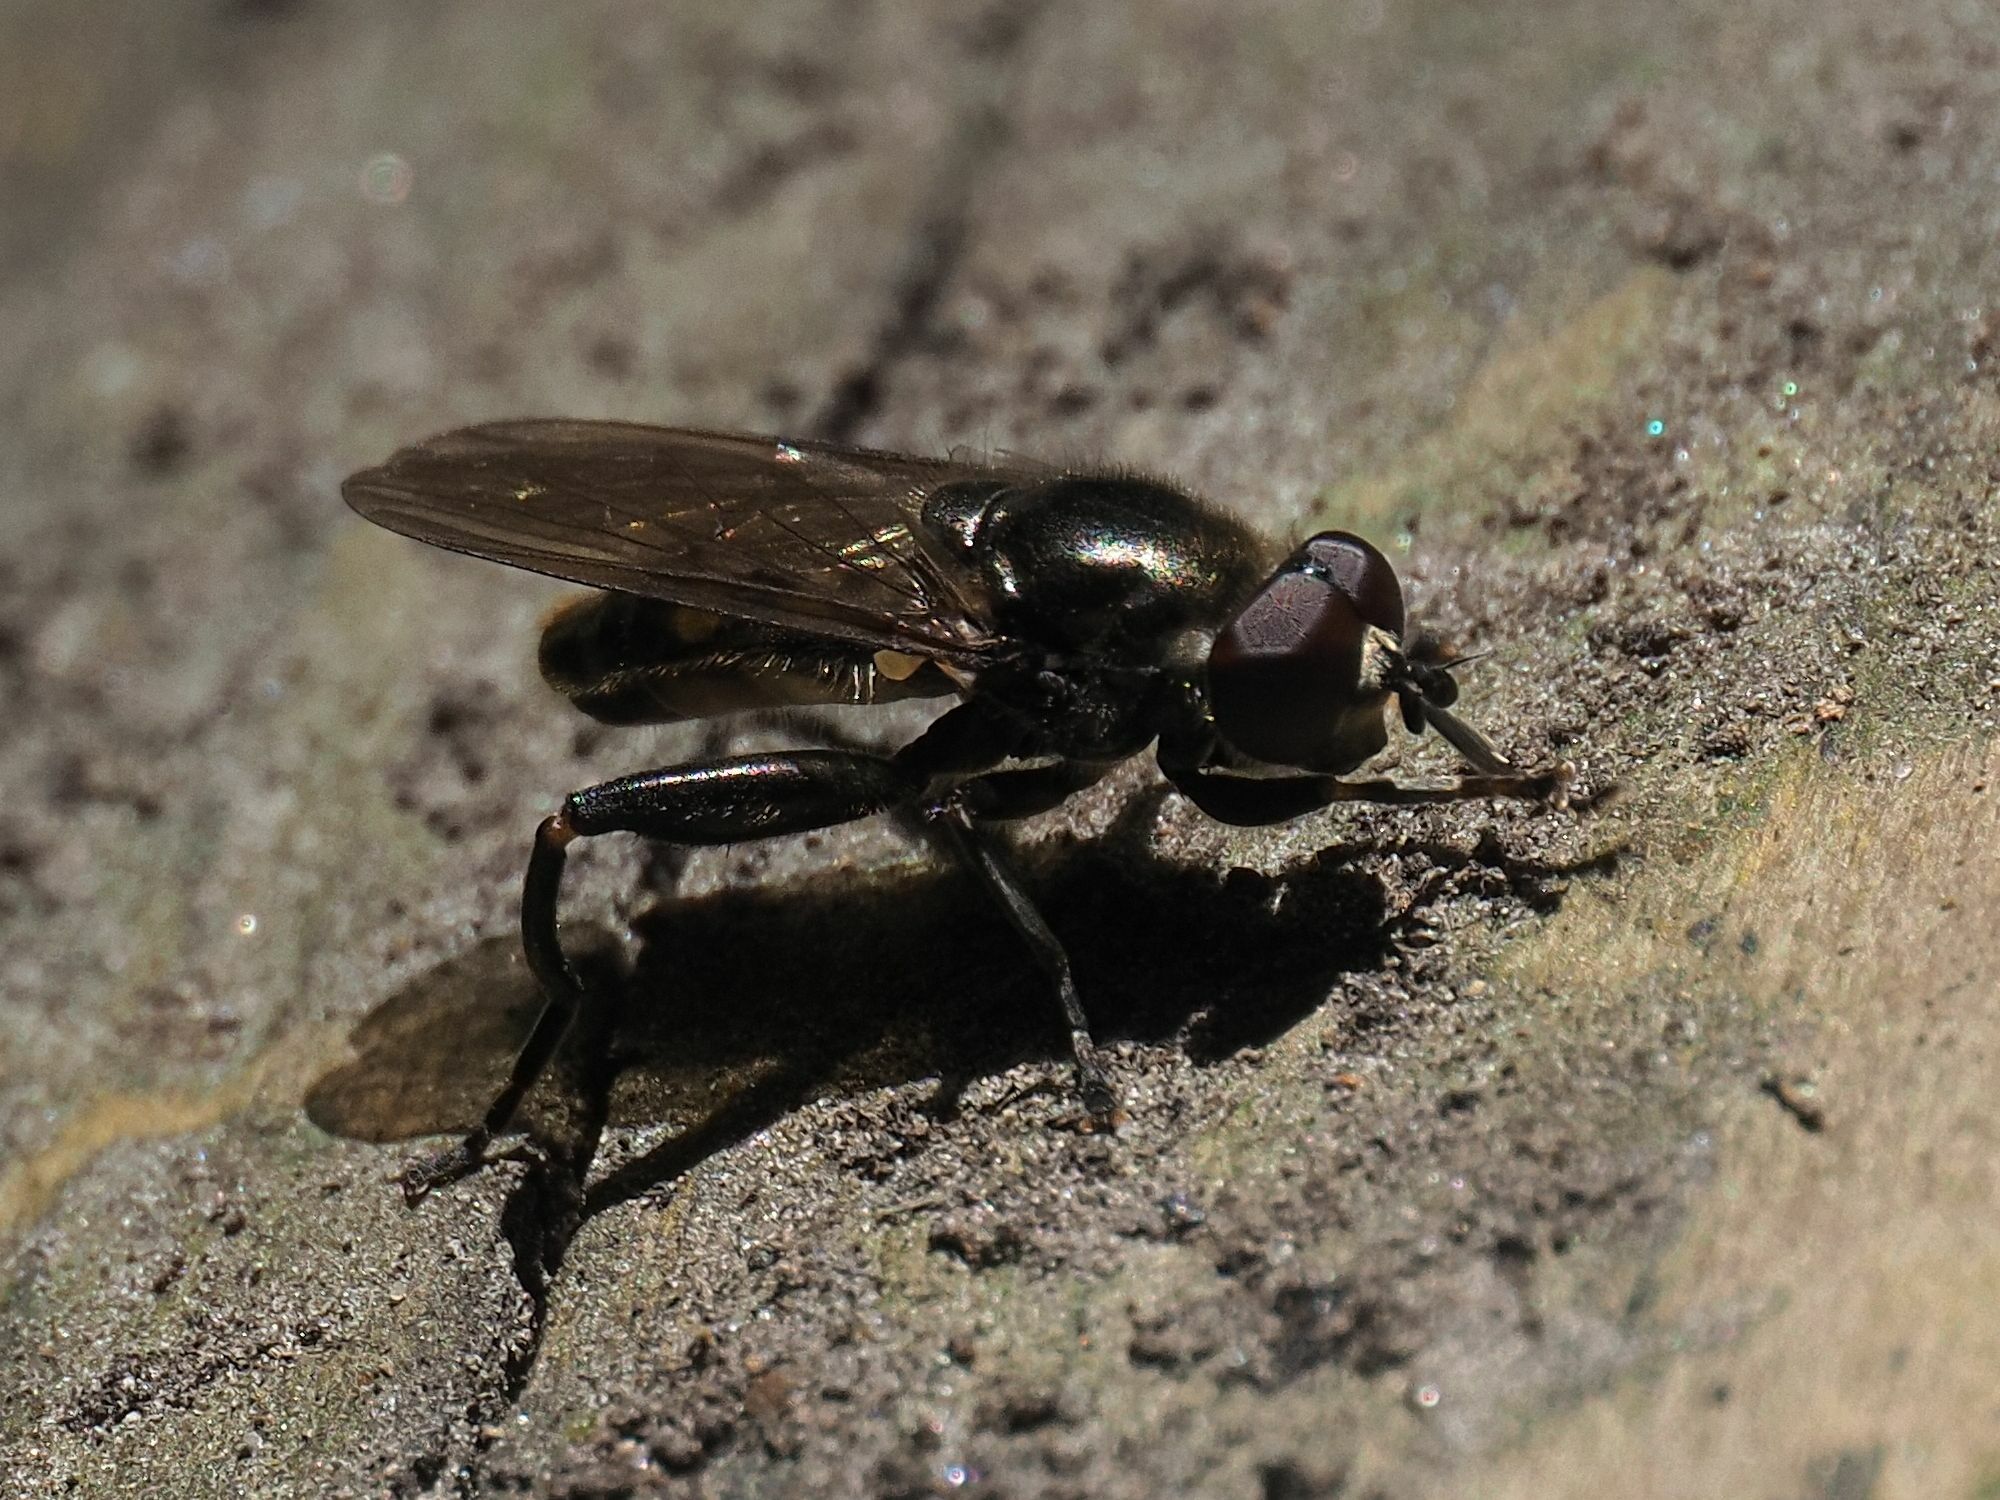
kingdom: Animalia
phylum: Arthropoda
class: Insecta
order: Diptera
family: Syrphidae
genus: Chalcosyrphus
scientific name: Chalcosyrphus nemorum
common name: Dusky-banded forest fly
